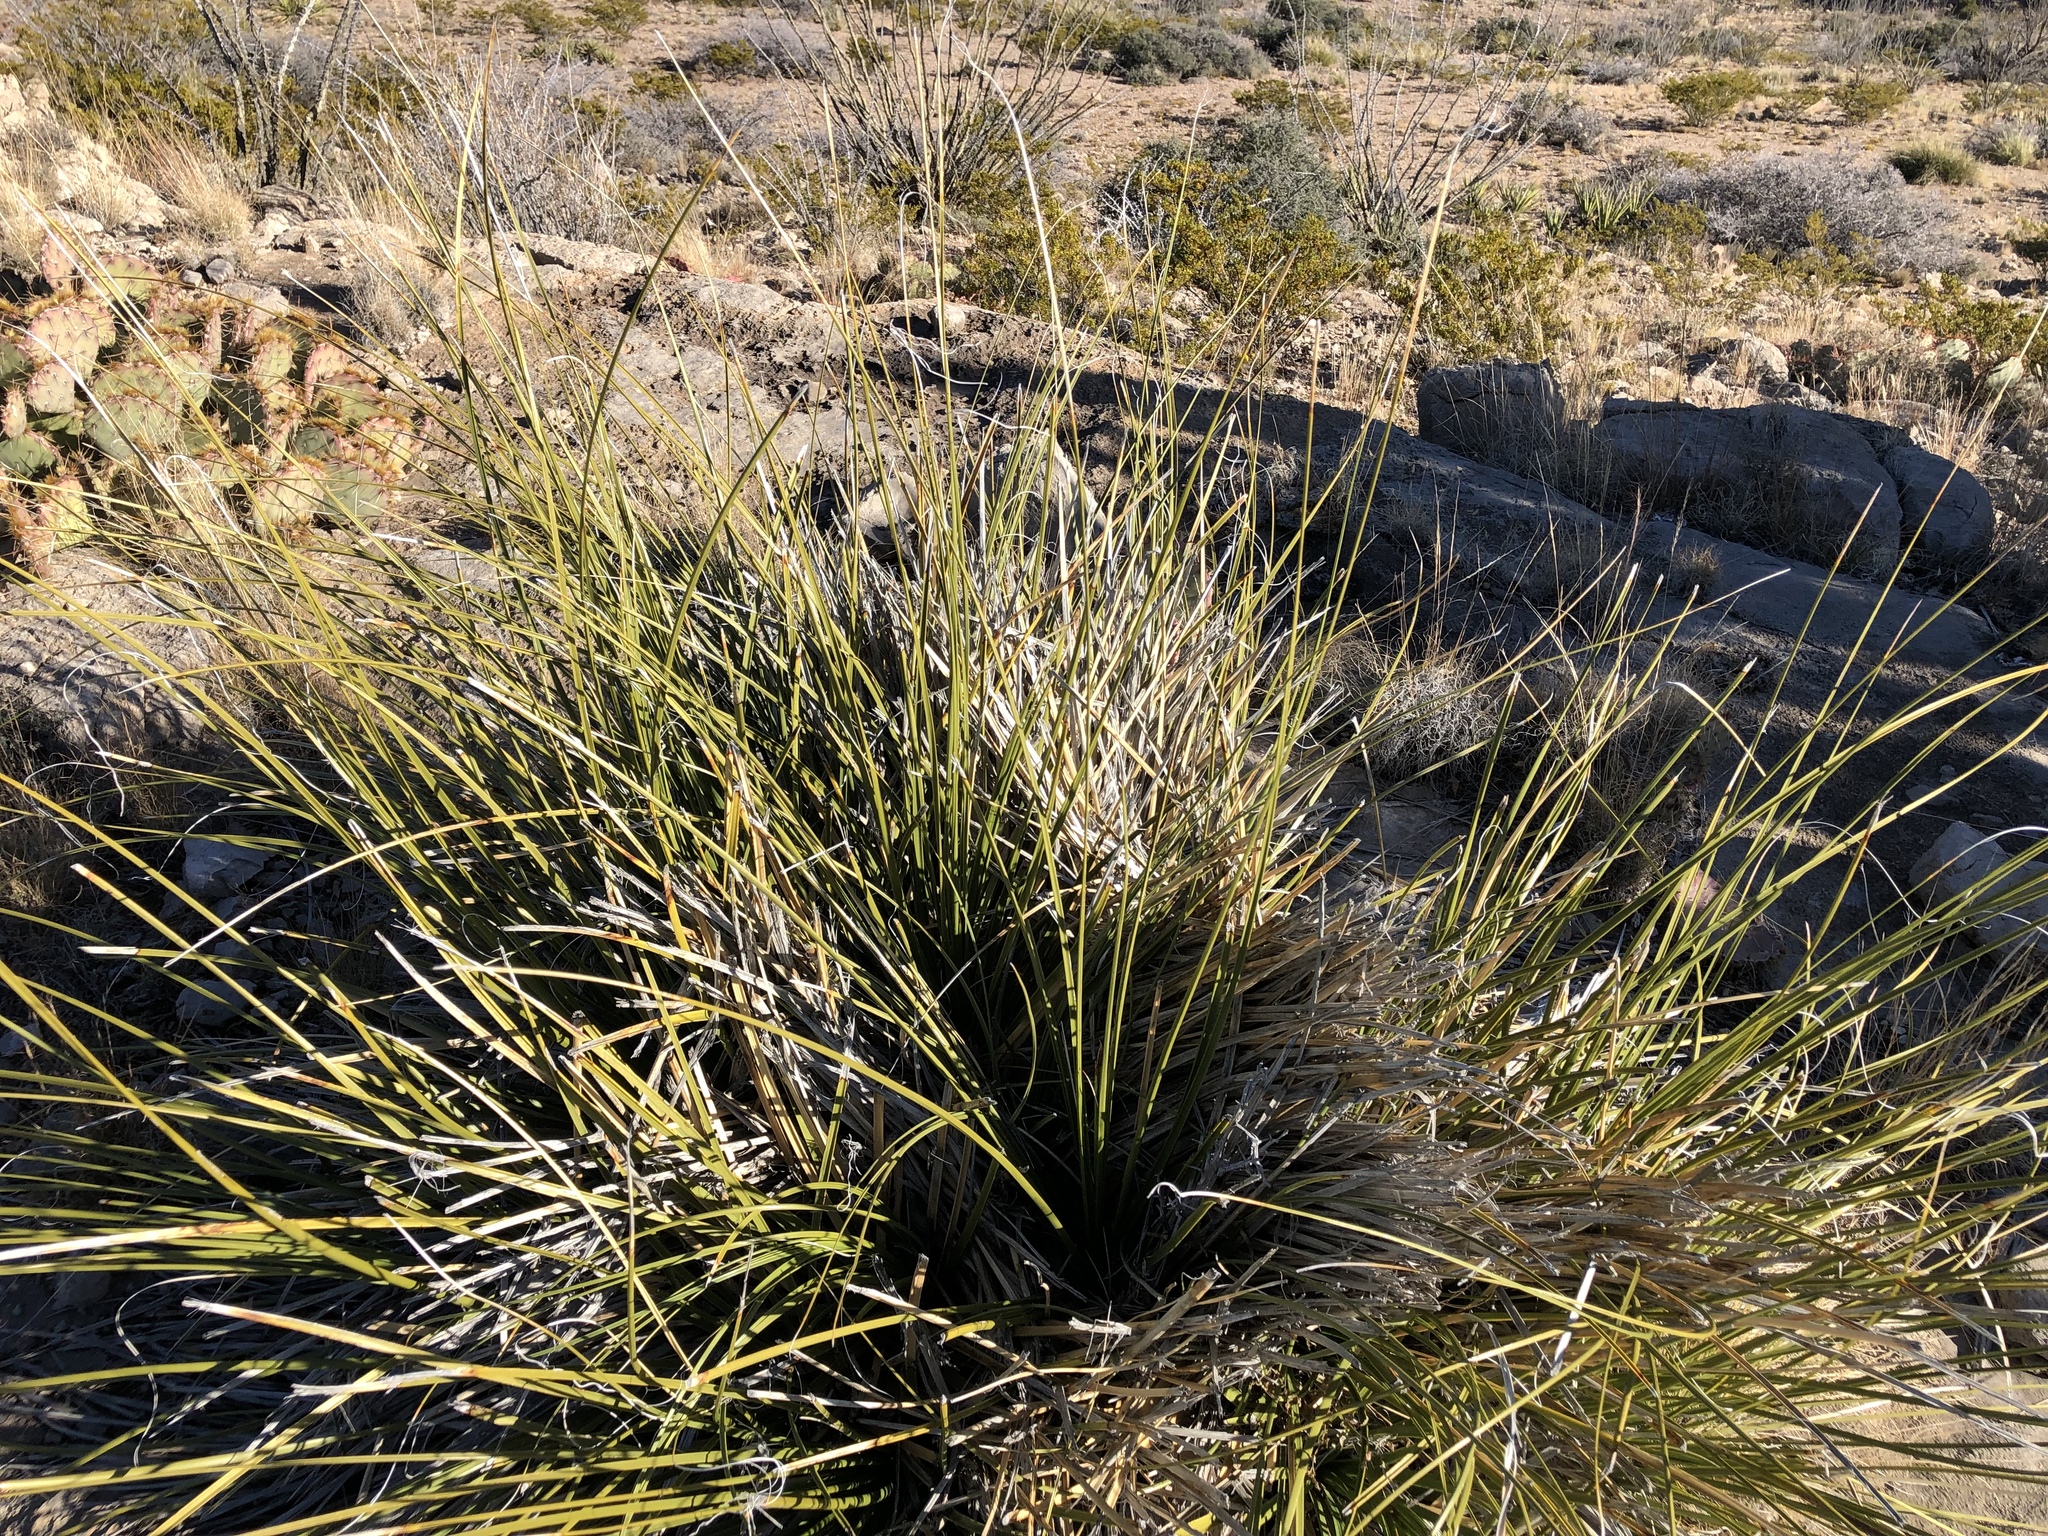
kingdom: Plantae
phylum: Tracheophyta
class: Liliopsida
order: Asparagales
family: Asparagaceae
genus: Nolina
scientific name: Nolina microcarpa
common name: Bear-grass
